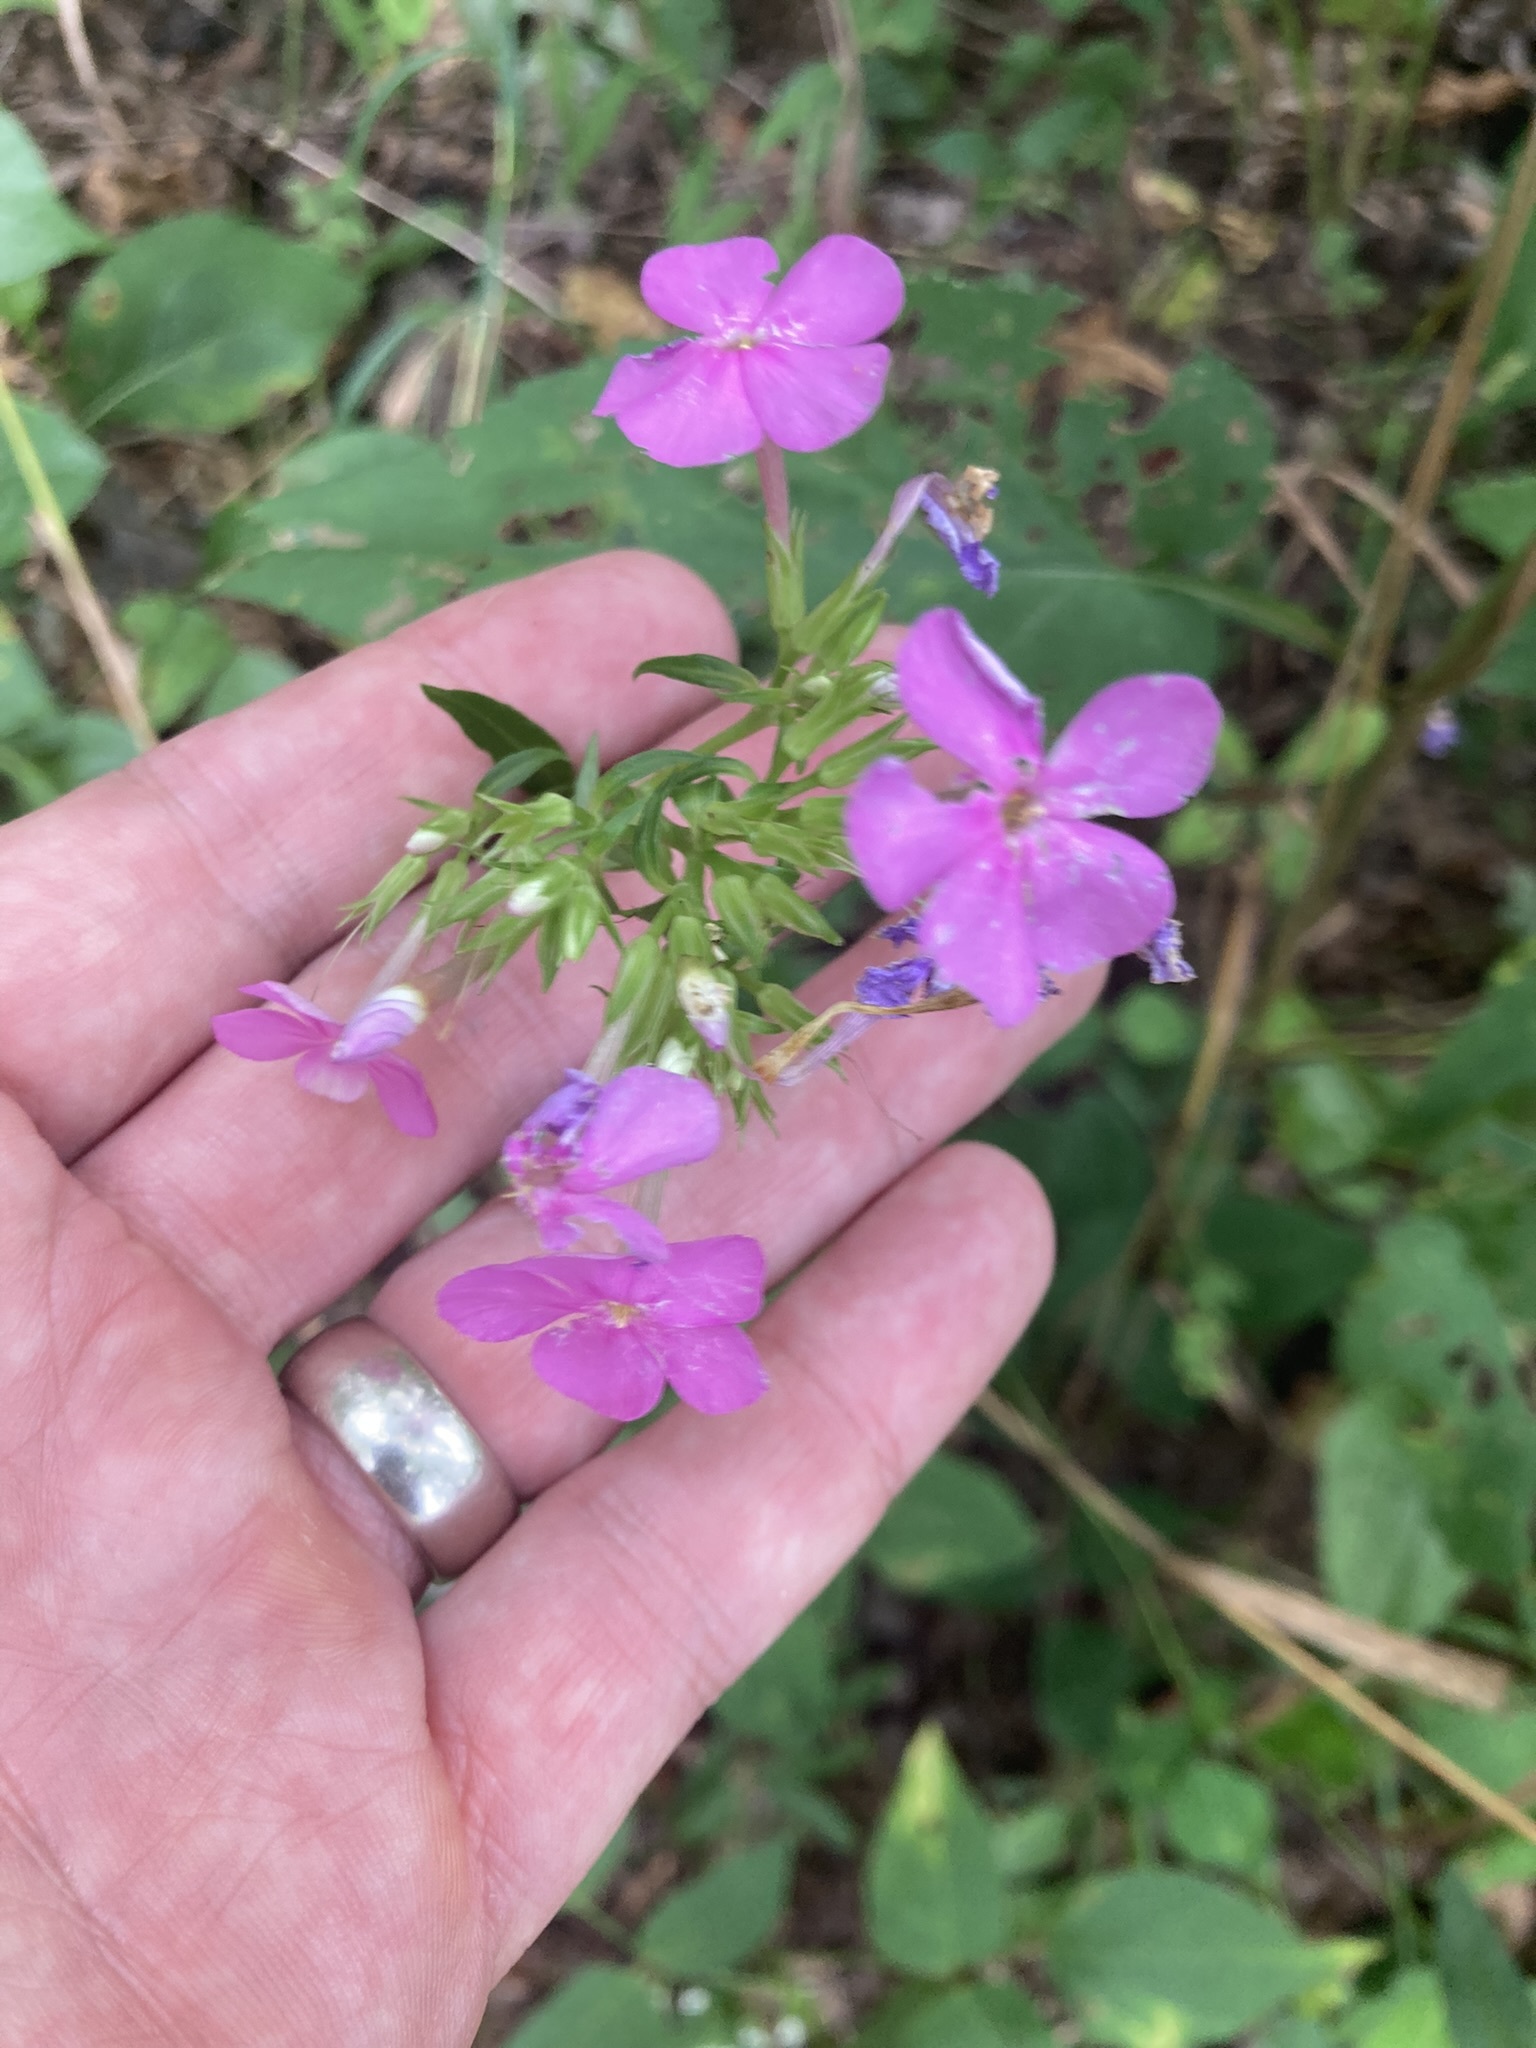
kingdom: Plantae
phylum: Tracheophyta
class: Magnoliopsida
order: Ericales
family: Polemoniaceae
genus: Phlox
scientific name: Phlox carolina
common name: Thick-leaf phlox
